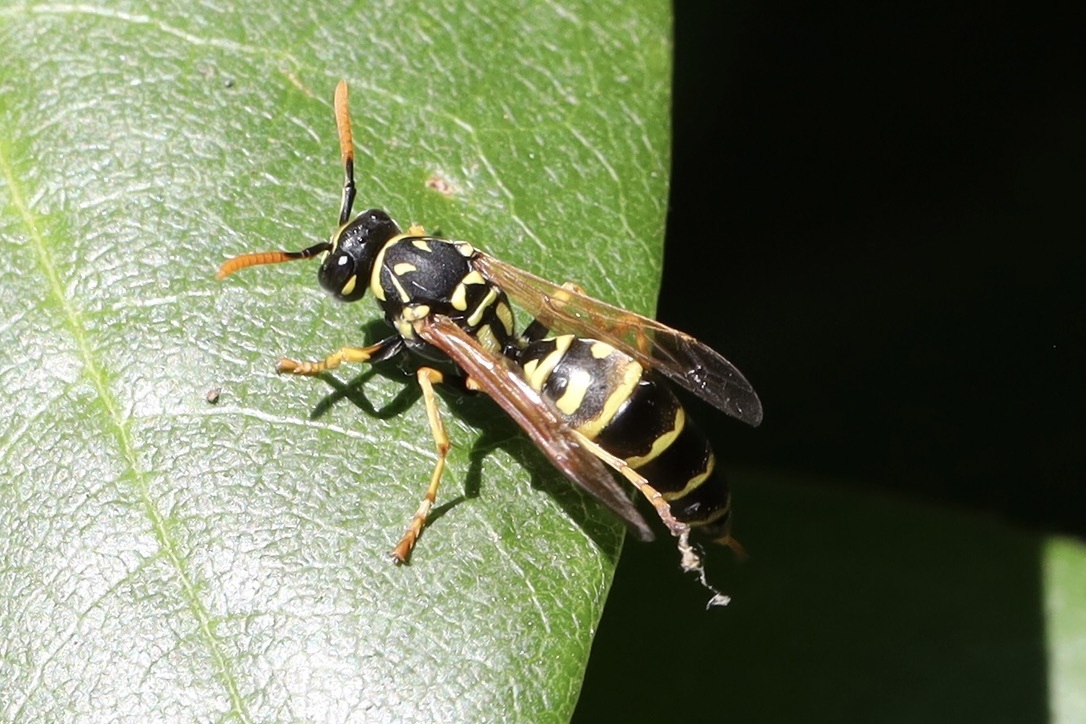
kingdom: Animalia
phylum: Arthropoda
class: Insecta
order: Hymenoptera
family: Eumenidae
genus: Polistes
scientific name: Polistes dominula
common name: Paper wasp
